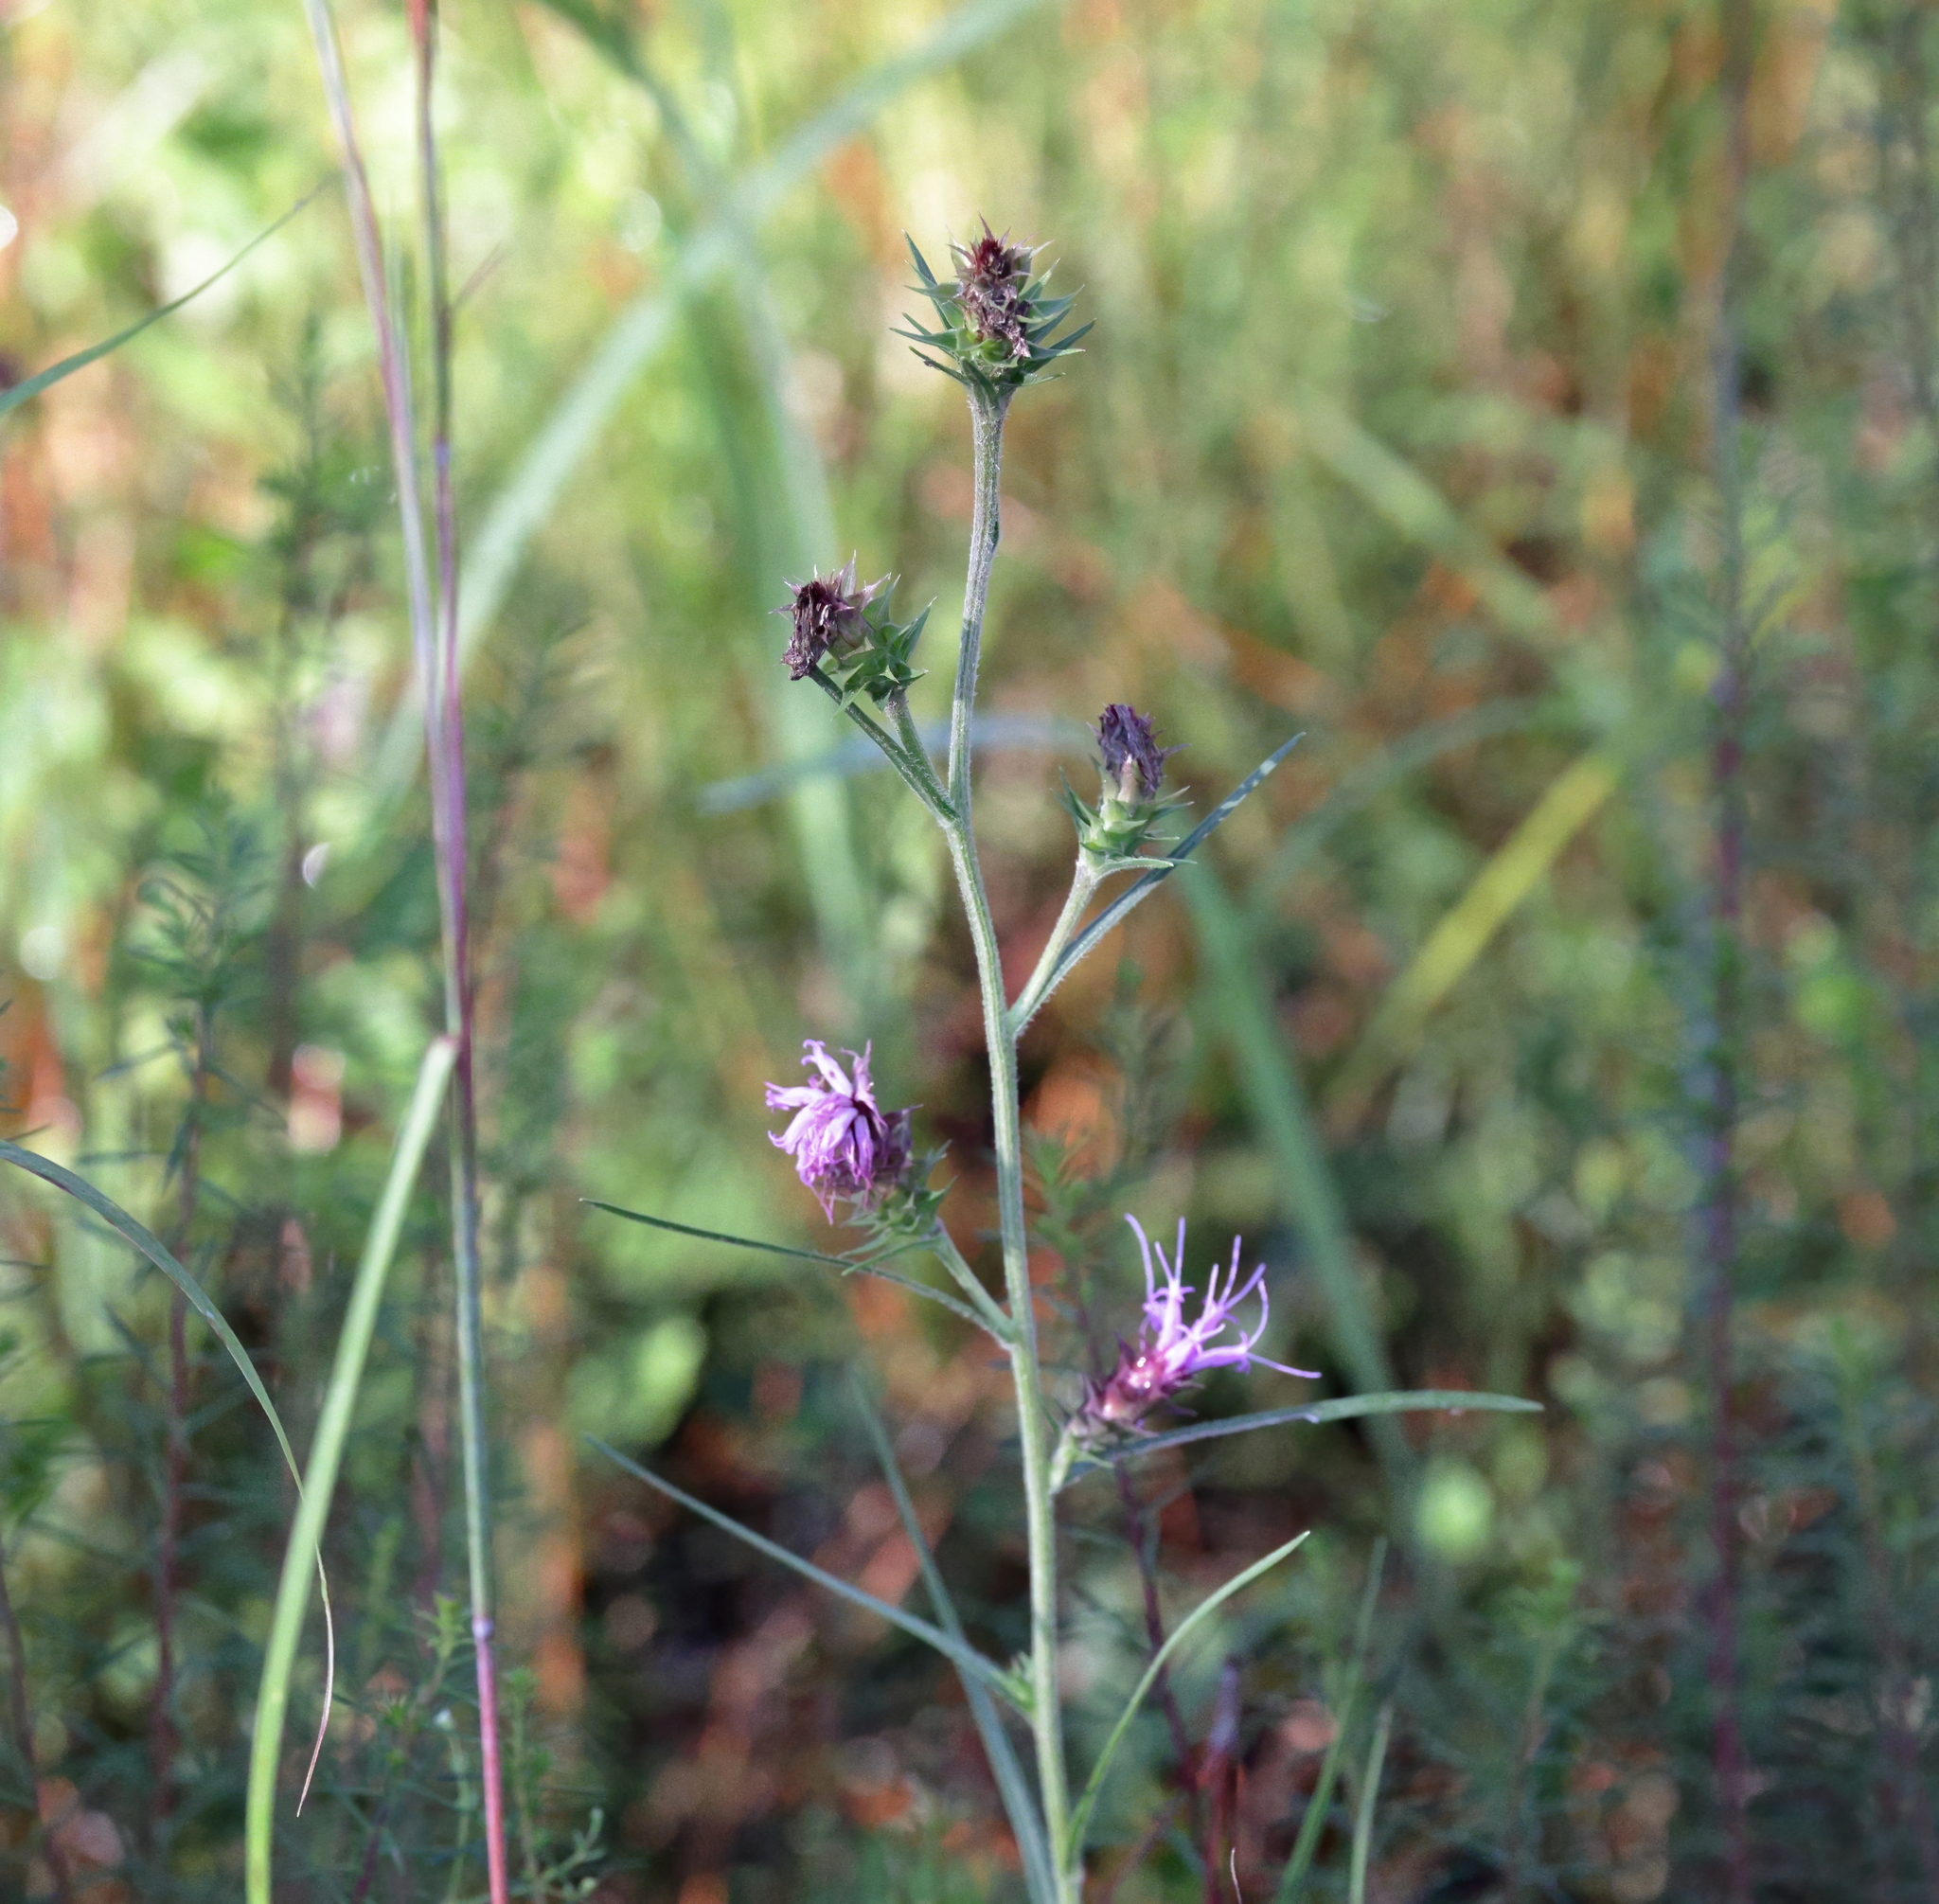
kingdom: Plantae
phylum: Tracheophyta
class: Magnoliopsida
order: Asterales
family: Asteraceae
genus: Liatris
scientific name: Liatris squarrosa
